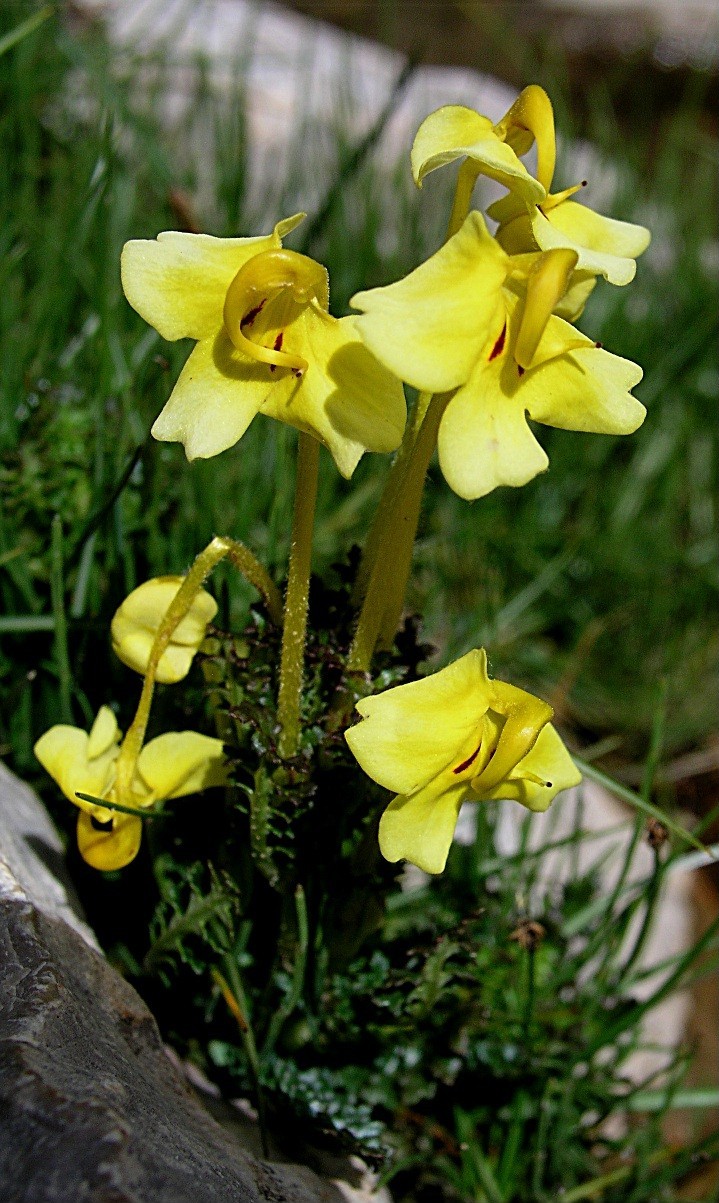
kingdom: Plantae
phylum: Tracheophyta
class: Magnoliopsida
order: Lamiales
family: Orobanchaceae
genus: Pedicularis
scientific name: Pedicularis longiflora
